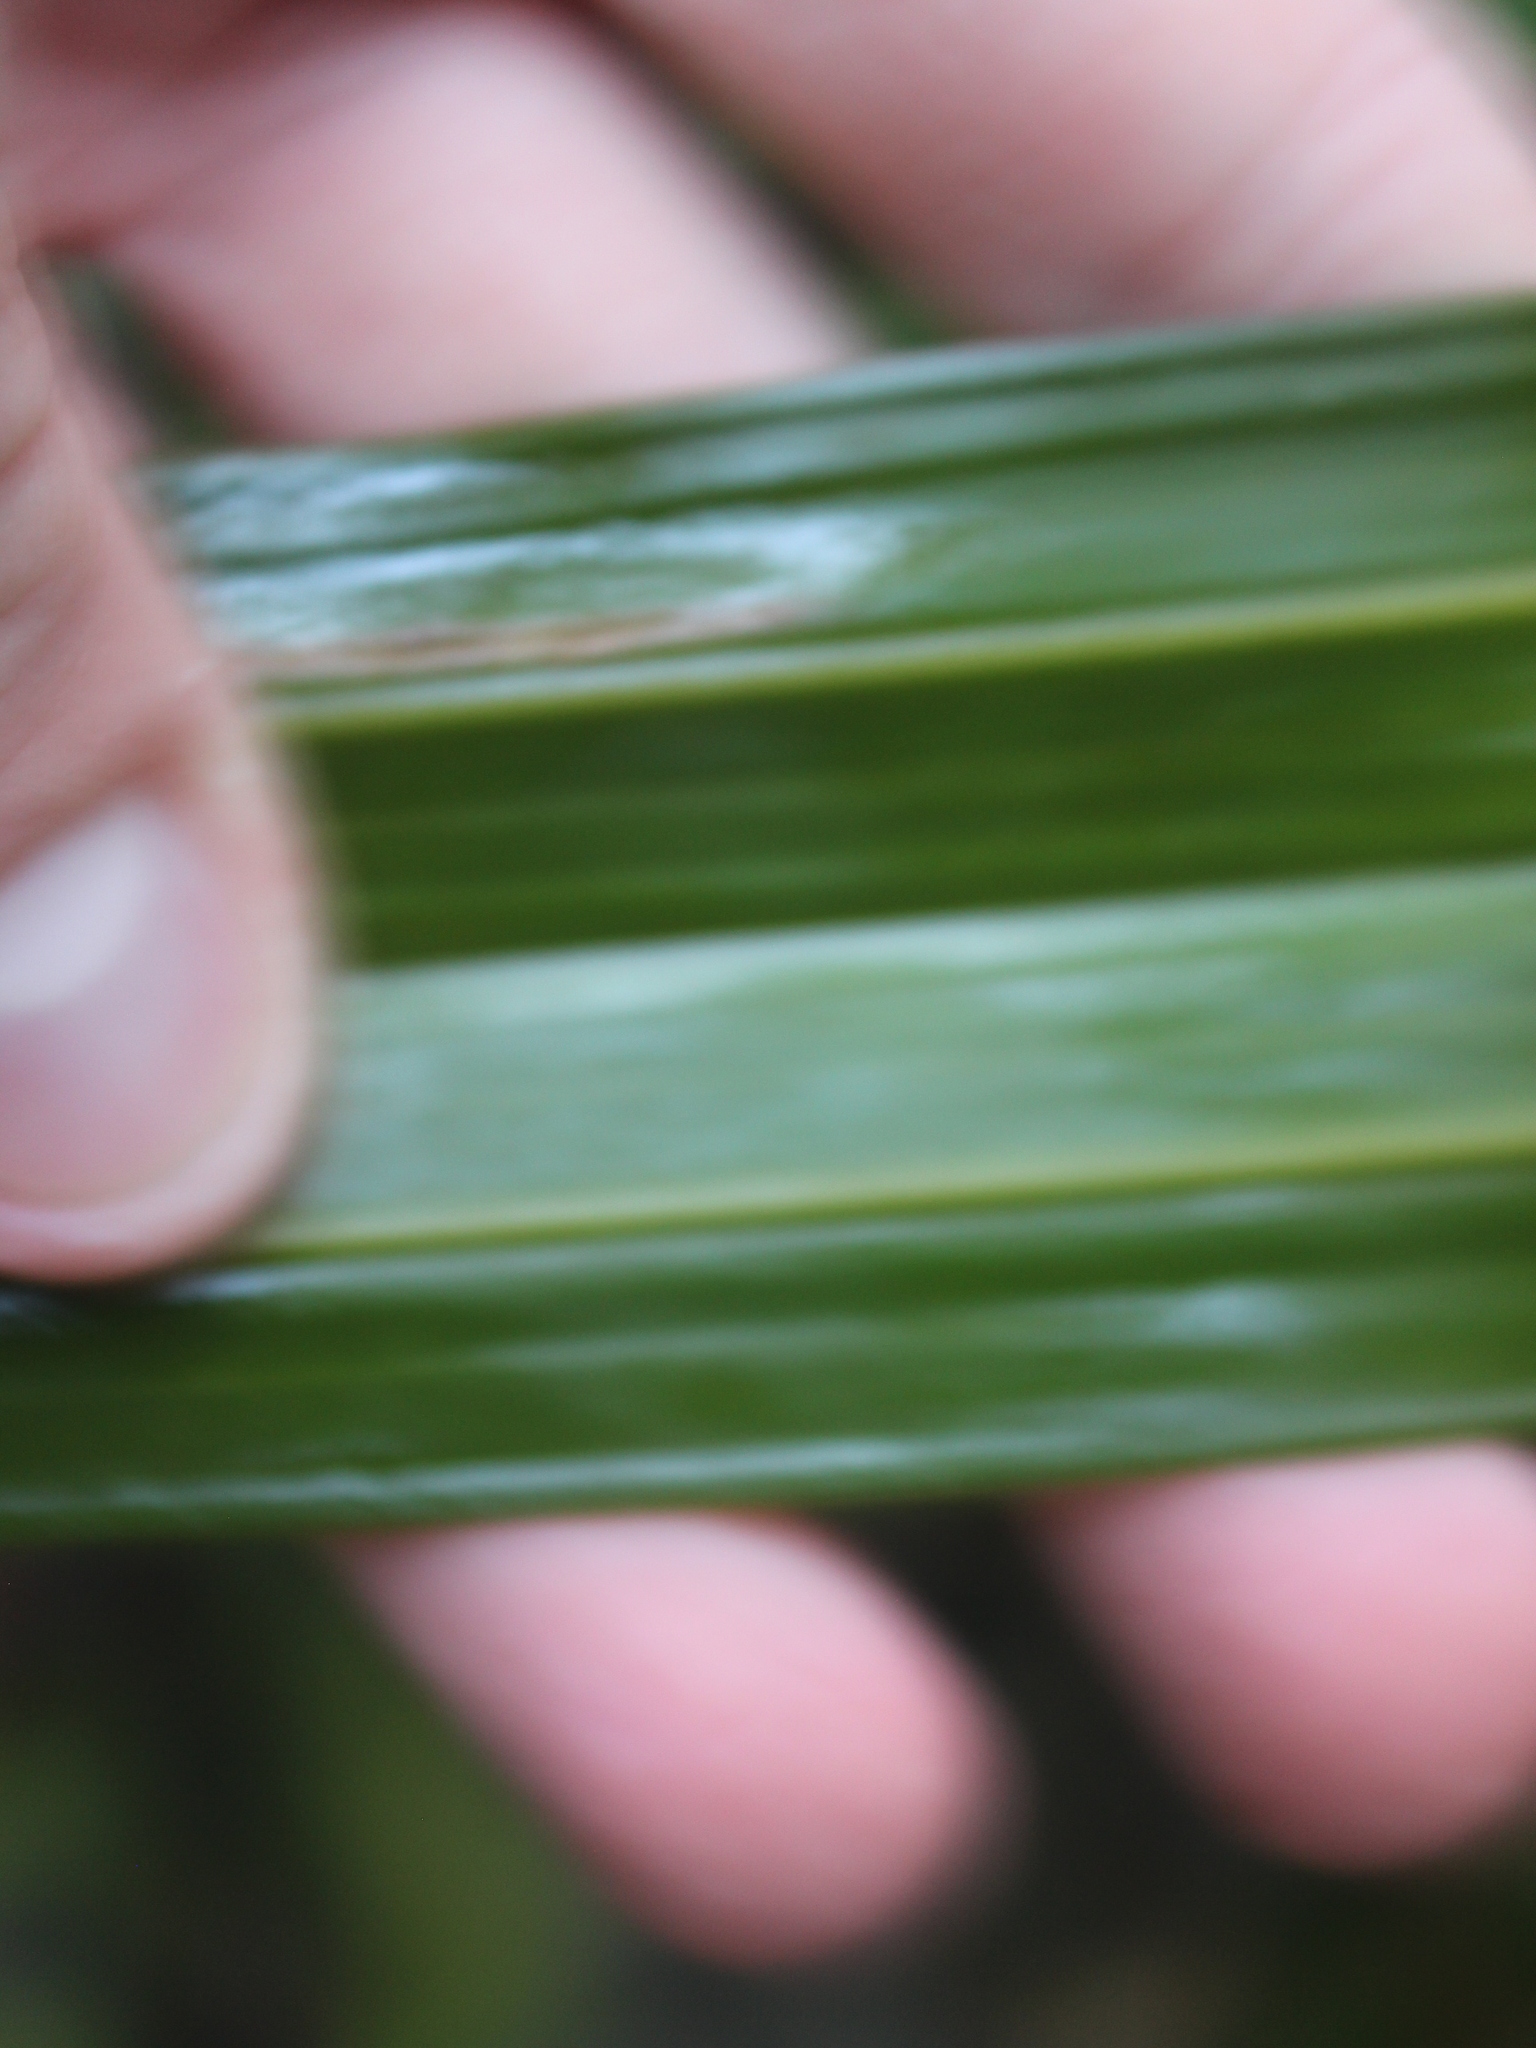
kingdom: Plantae
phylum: Tracheophyta
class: Liliopsida
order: Asparagales
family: Asteliaceae
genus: Astelia
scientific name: Astelia fragrans
